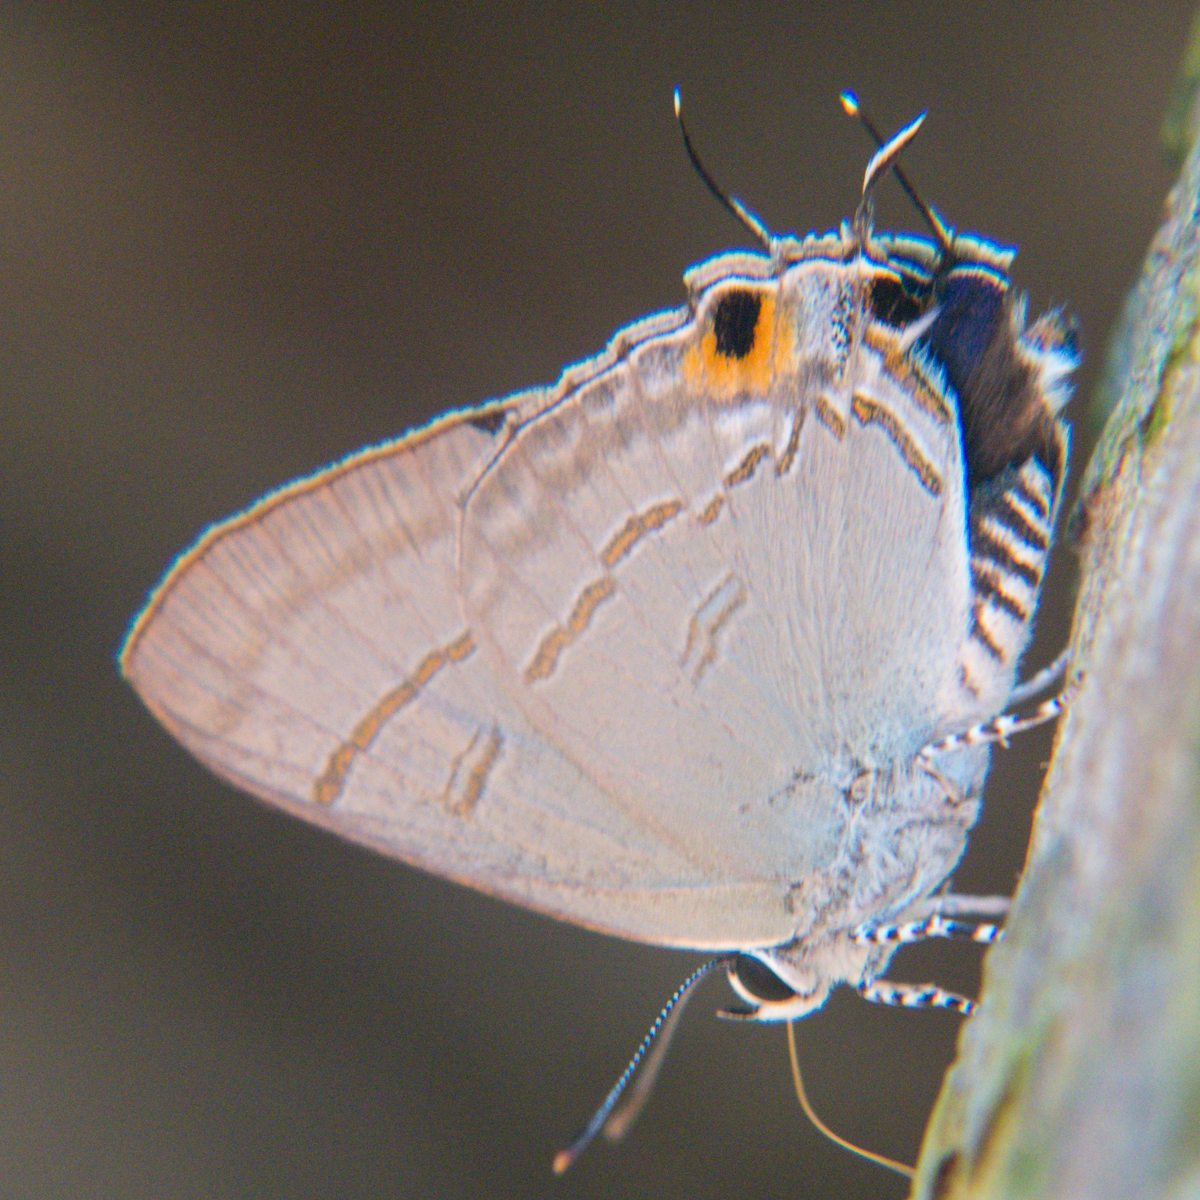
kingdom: Animalia
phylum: Arthropoda
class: Insecta
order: Lepidoptera
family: Lycaenidae
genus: Hypolycaena
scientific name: Hypolycaena erylus
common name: Common tit
